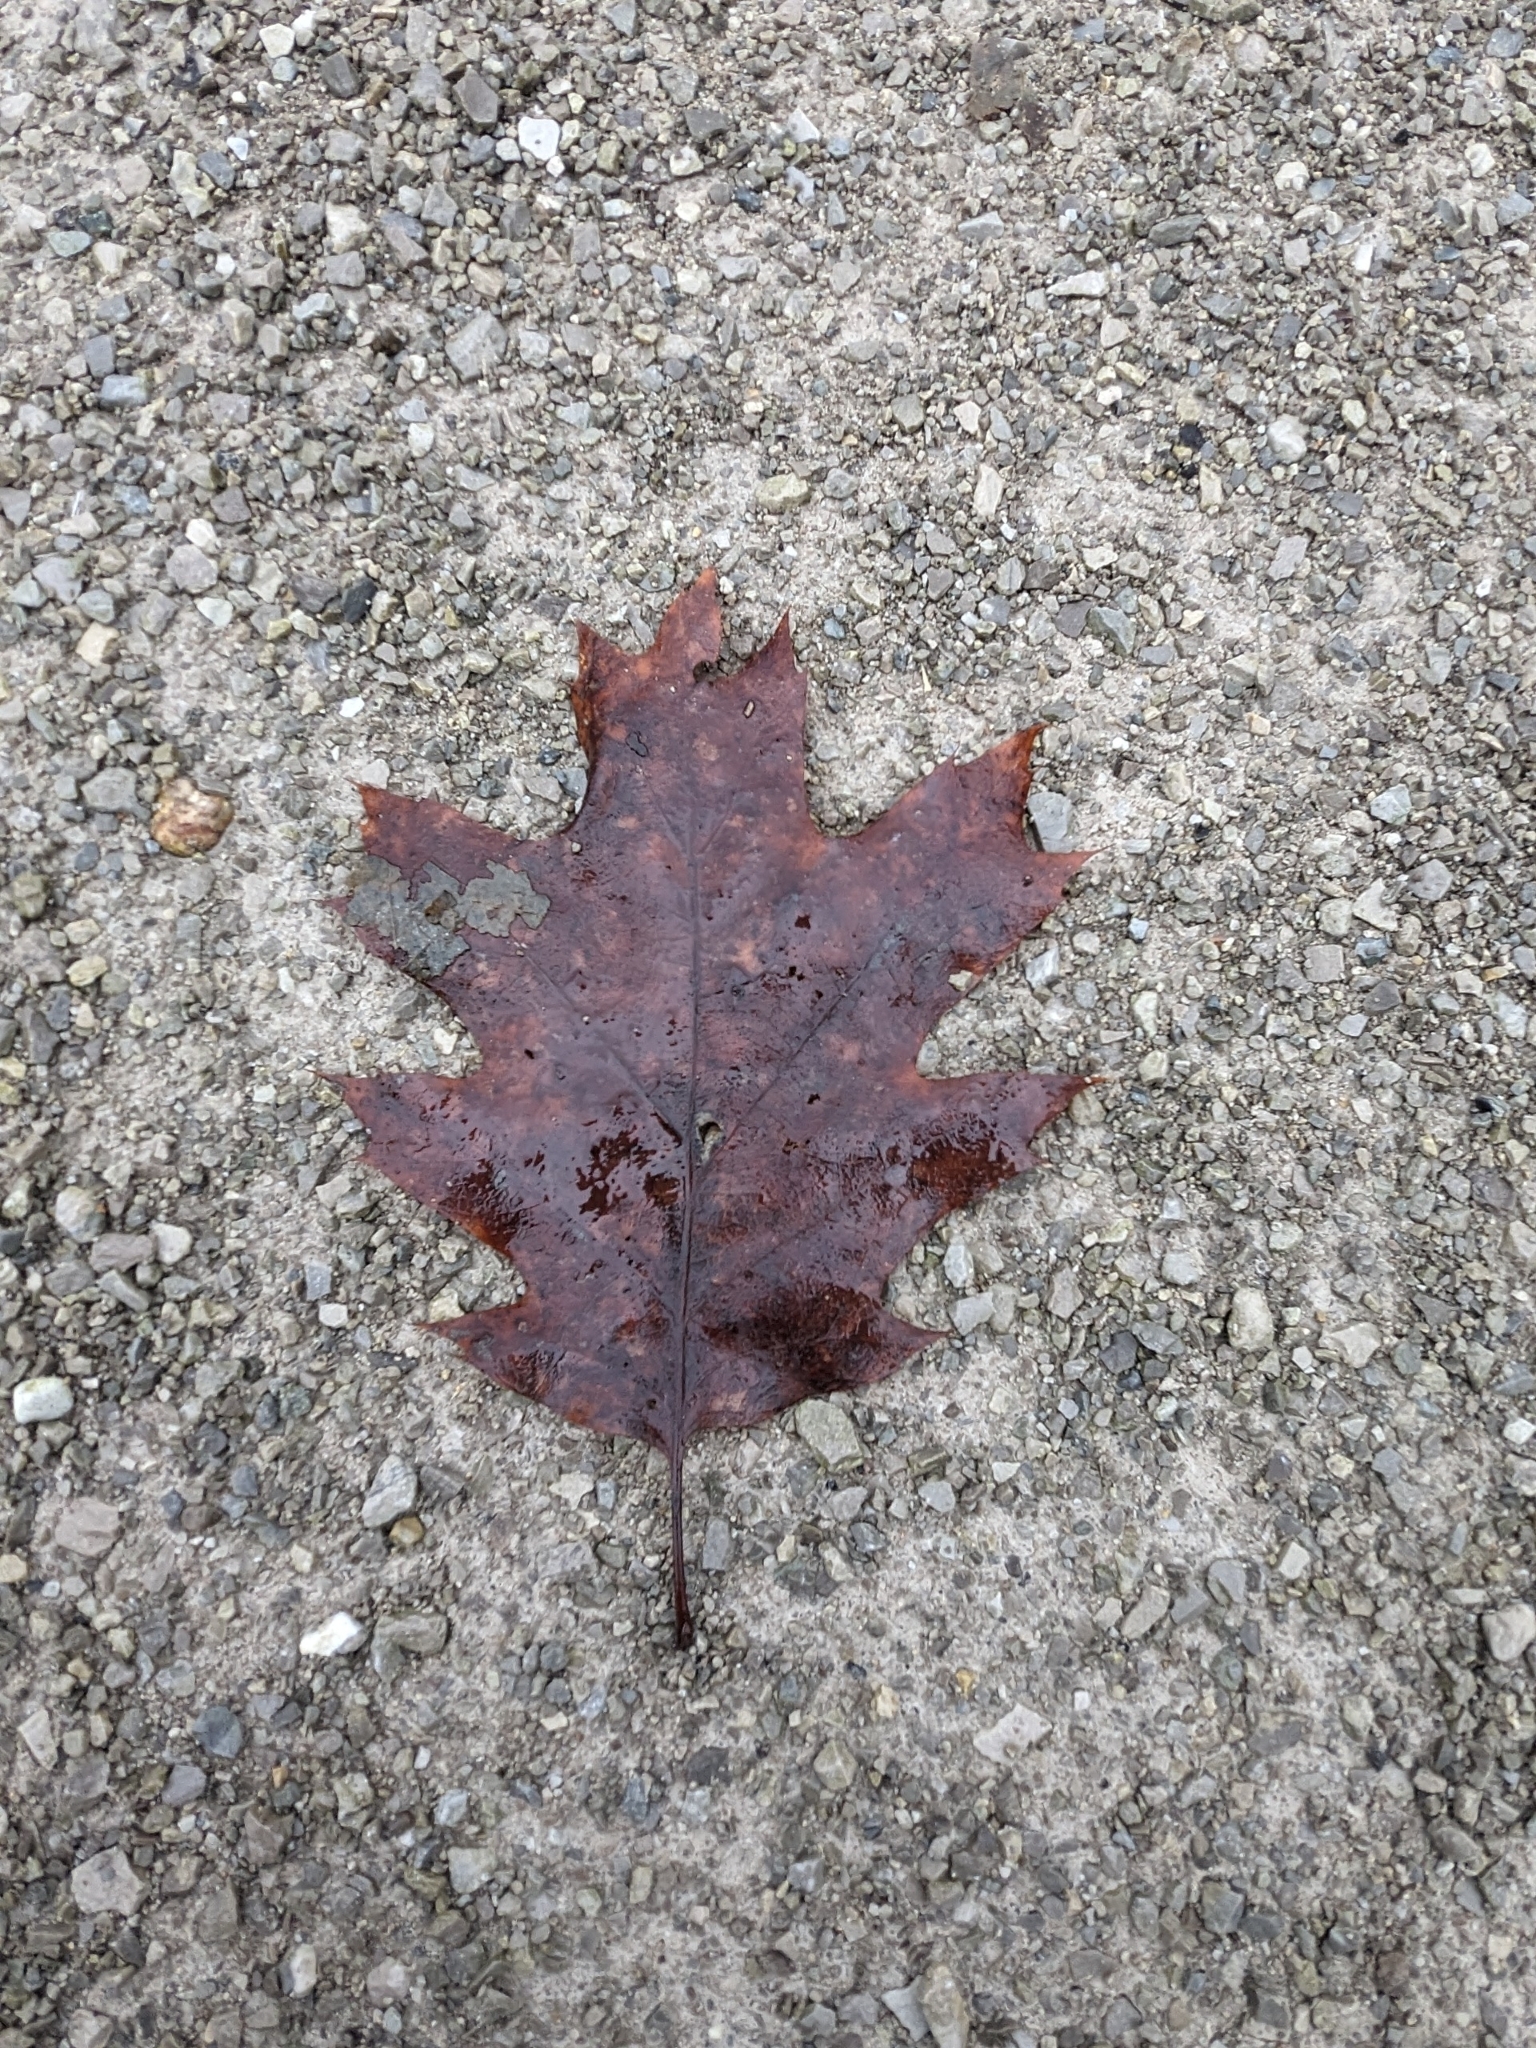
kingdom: Plantae
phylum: Tracheophyta
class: Magnoliopsida
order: Fagales
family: Fagaceae
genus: Quercus
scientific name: Quercus rubra
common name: Red oak
